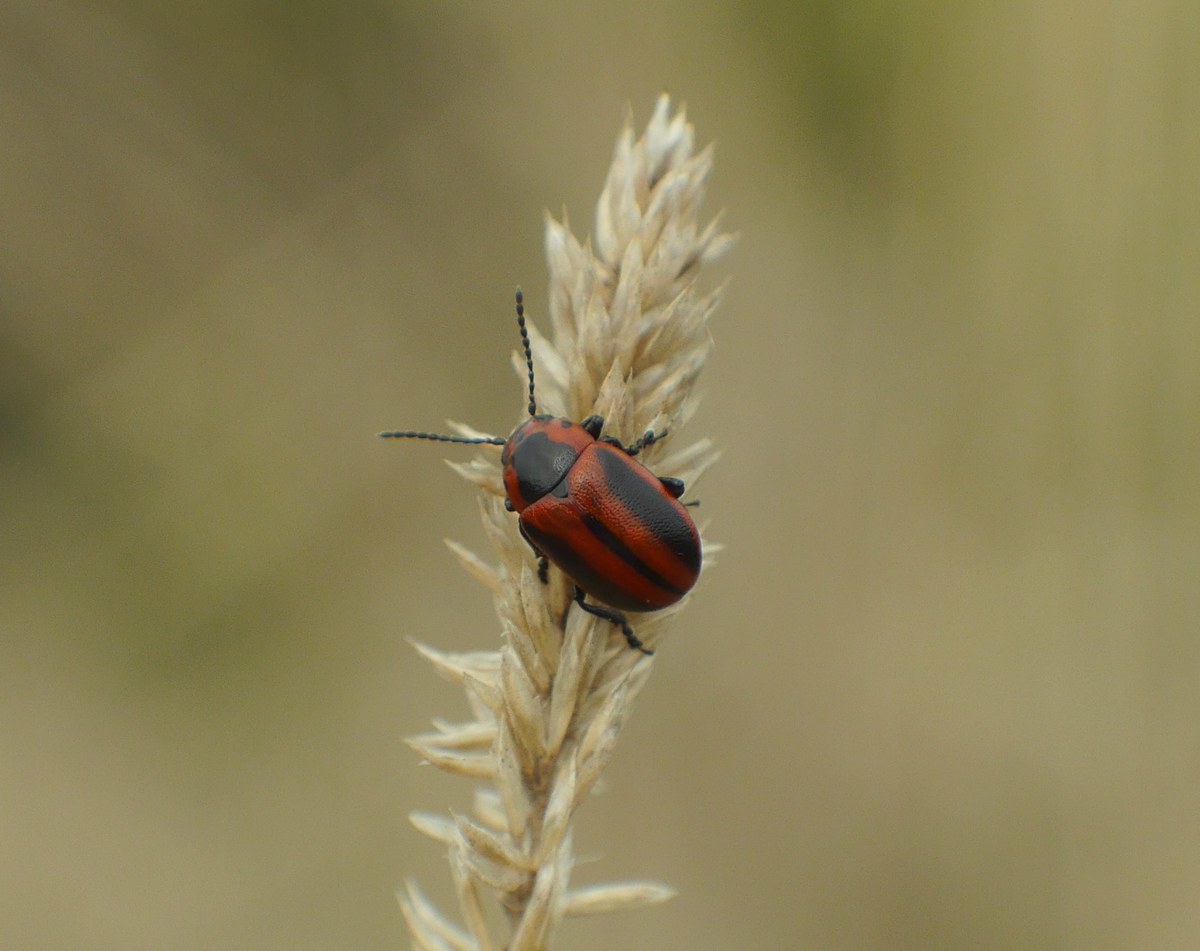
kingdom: Animalia
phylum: Arthropoda
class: Insecta
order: Coleoptera
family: Chrysomelidae
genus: Entomoscelis
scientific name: Entomoscelis adonidis
